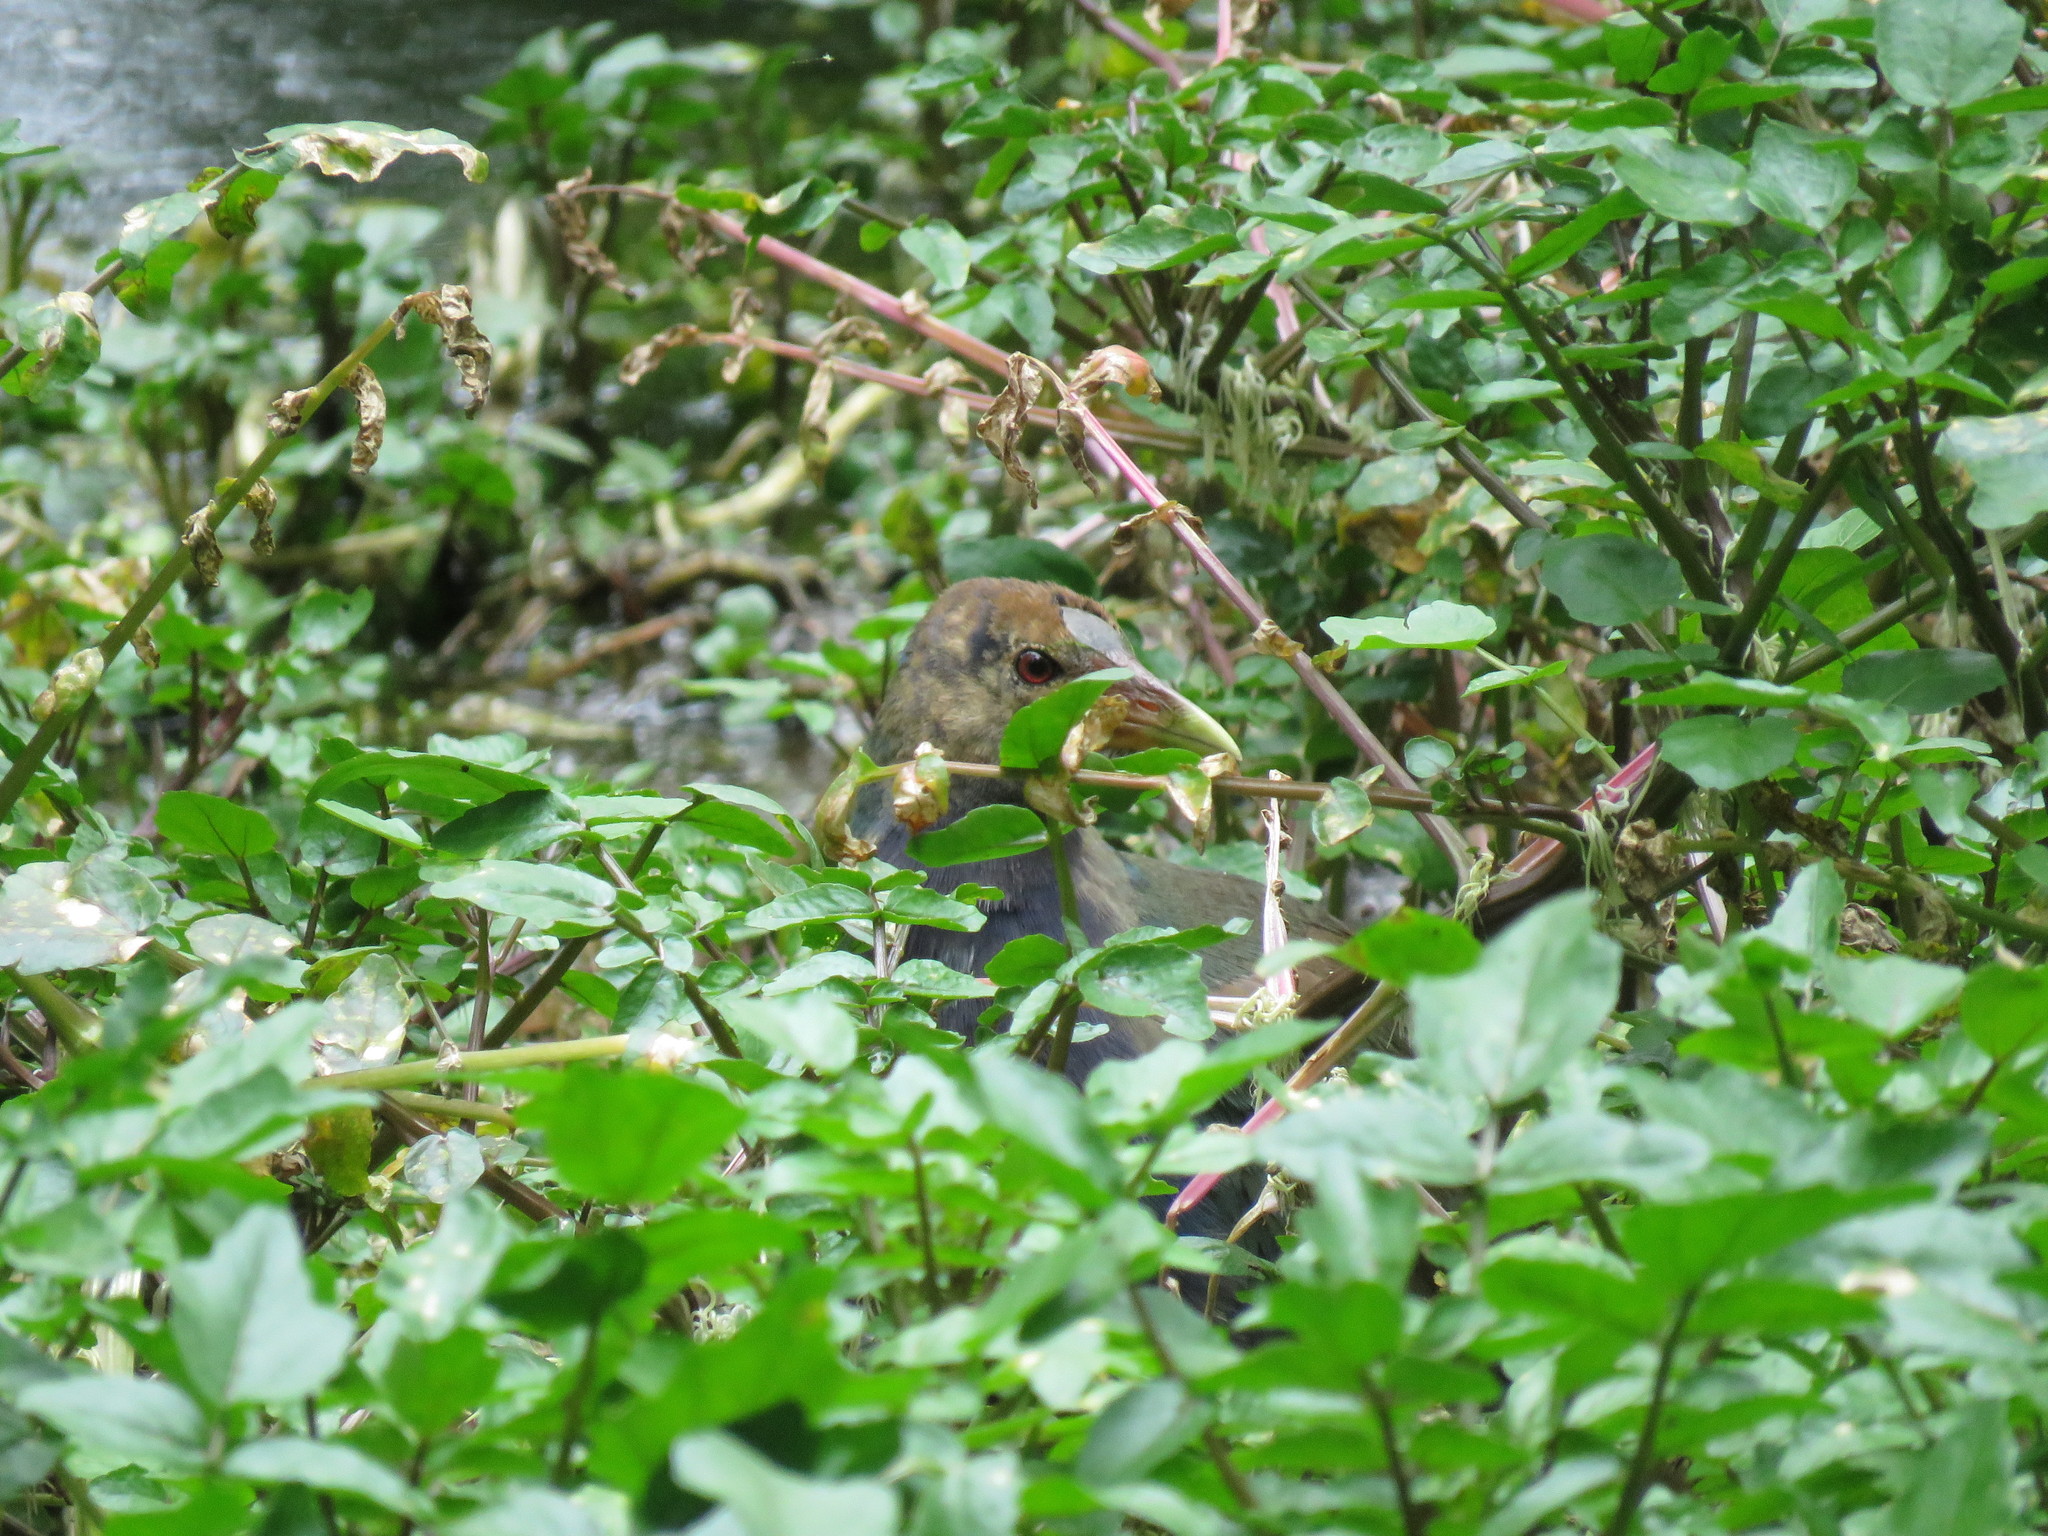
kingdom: Animalia
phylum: Chordata
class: Aves
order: Gruiformes
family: Rallidae
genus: Porphyrio
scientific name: Porphyrio martinica
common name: Purple gallinule
